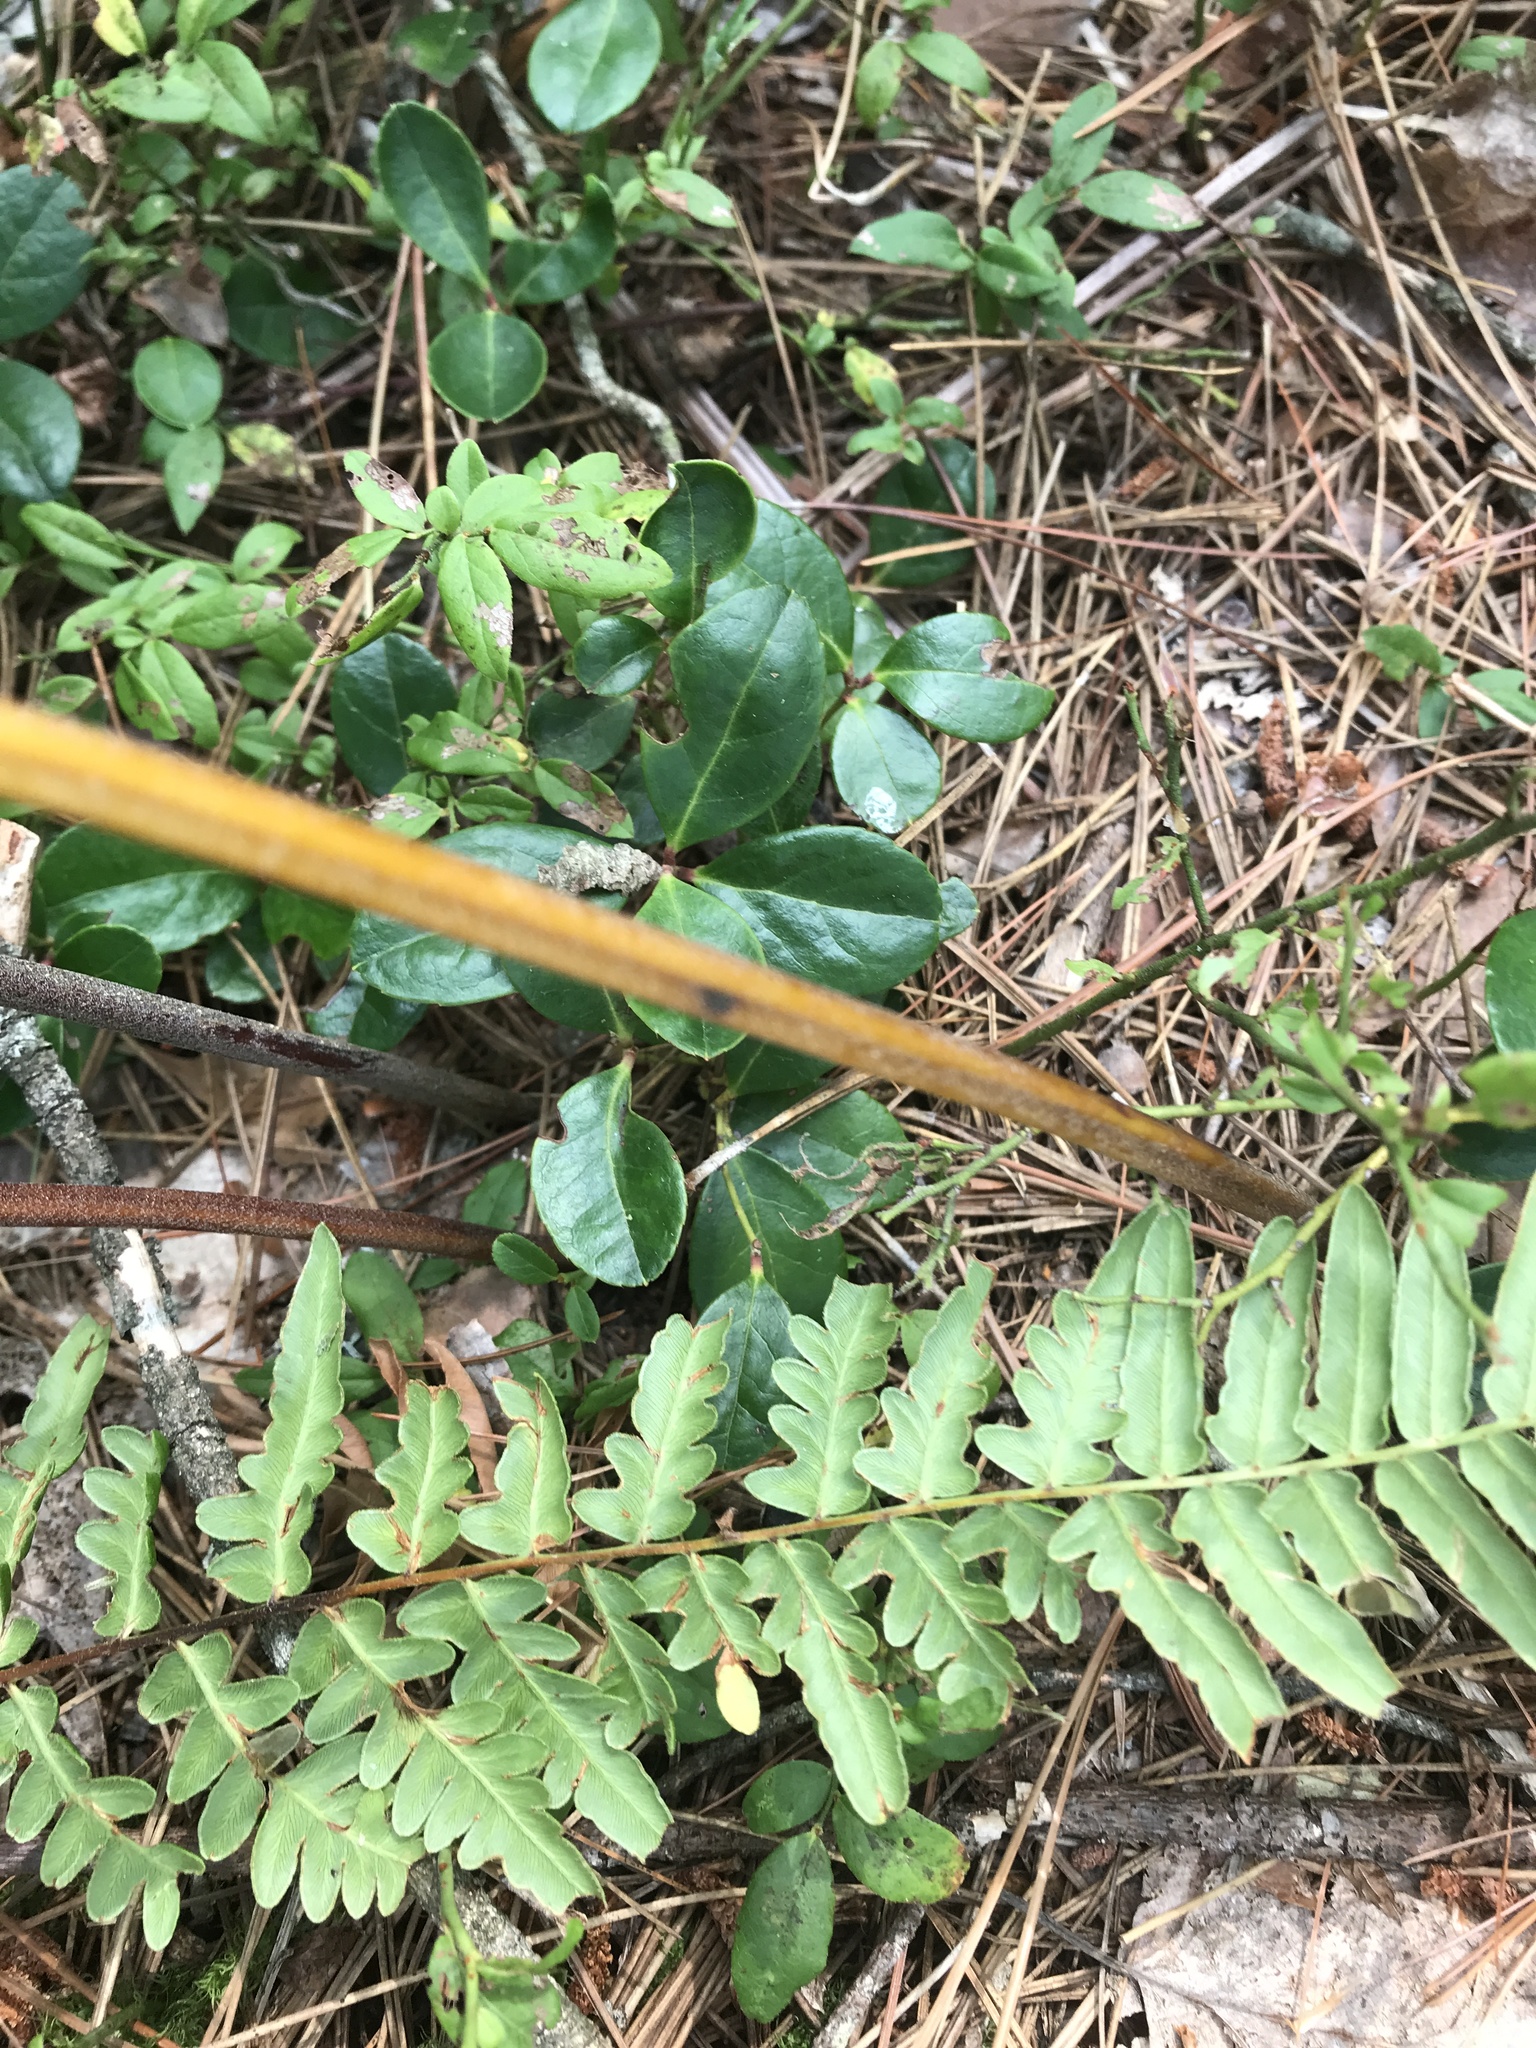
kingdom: Plantae
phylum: Tracheophyta
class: Polypodiopsida
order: Polypodiales
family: Dennstaedtiaceae
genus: Pteridium
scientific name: Pteridium aquilinum
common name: Bracken
